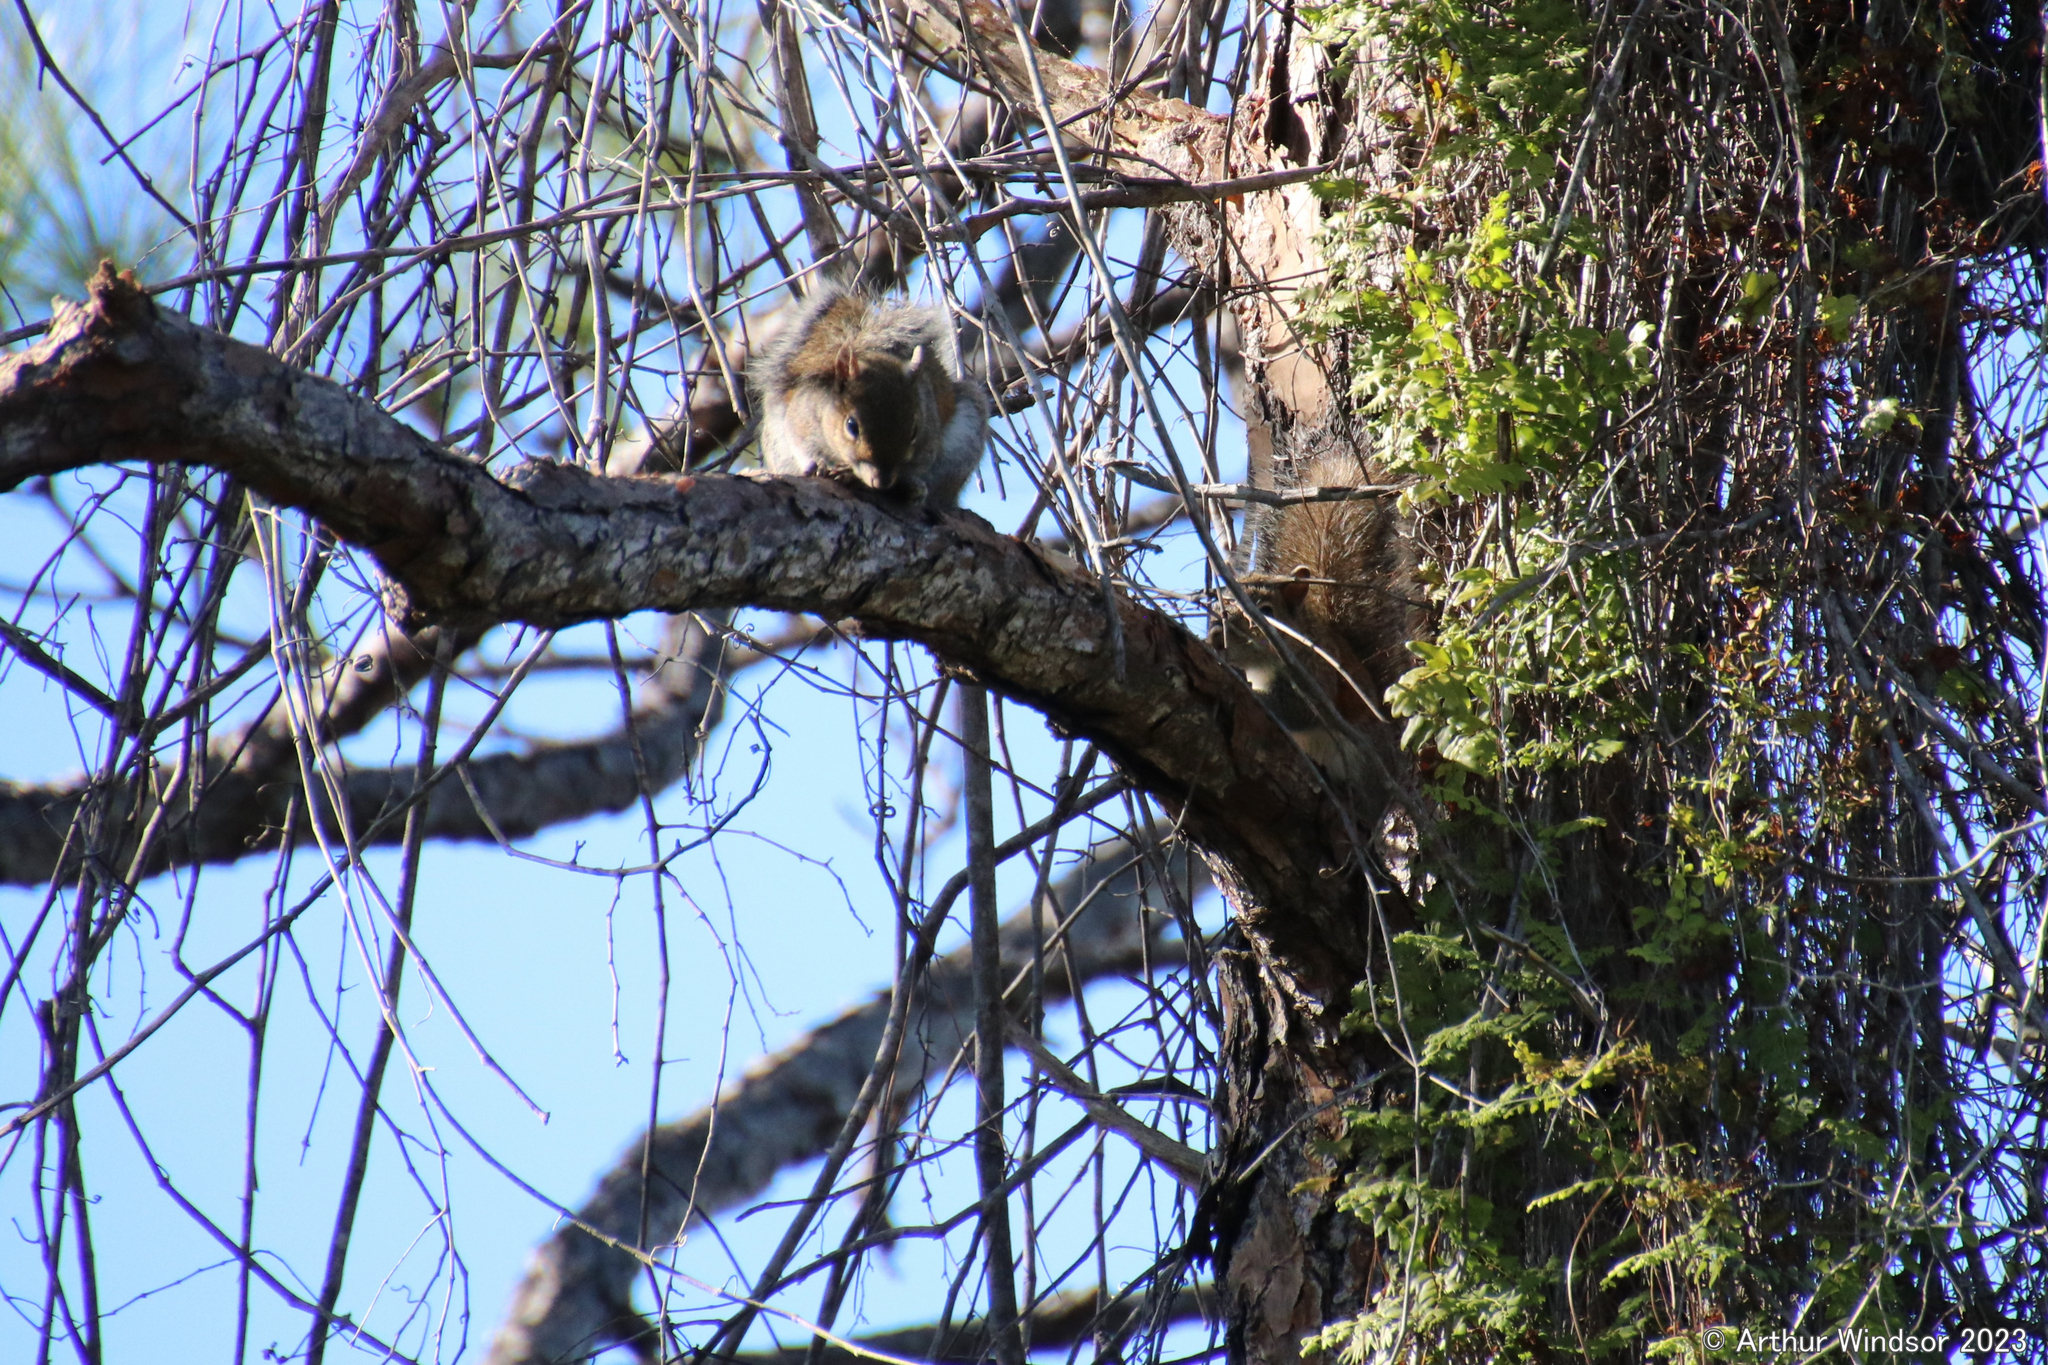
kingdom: Animalia
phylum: Chordata
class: Mammalia
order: Rodentia
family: Sciuridae
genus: Sciurus
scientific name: Sciurus carolinensis
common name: Eastern gray squirrel
